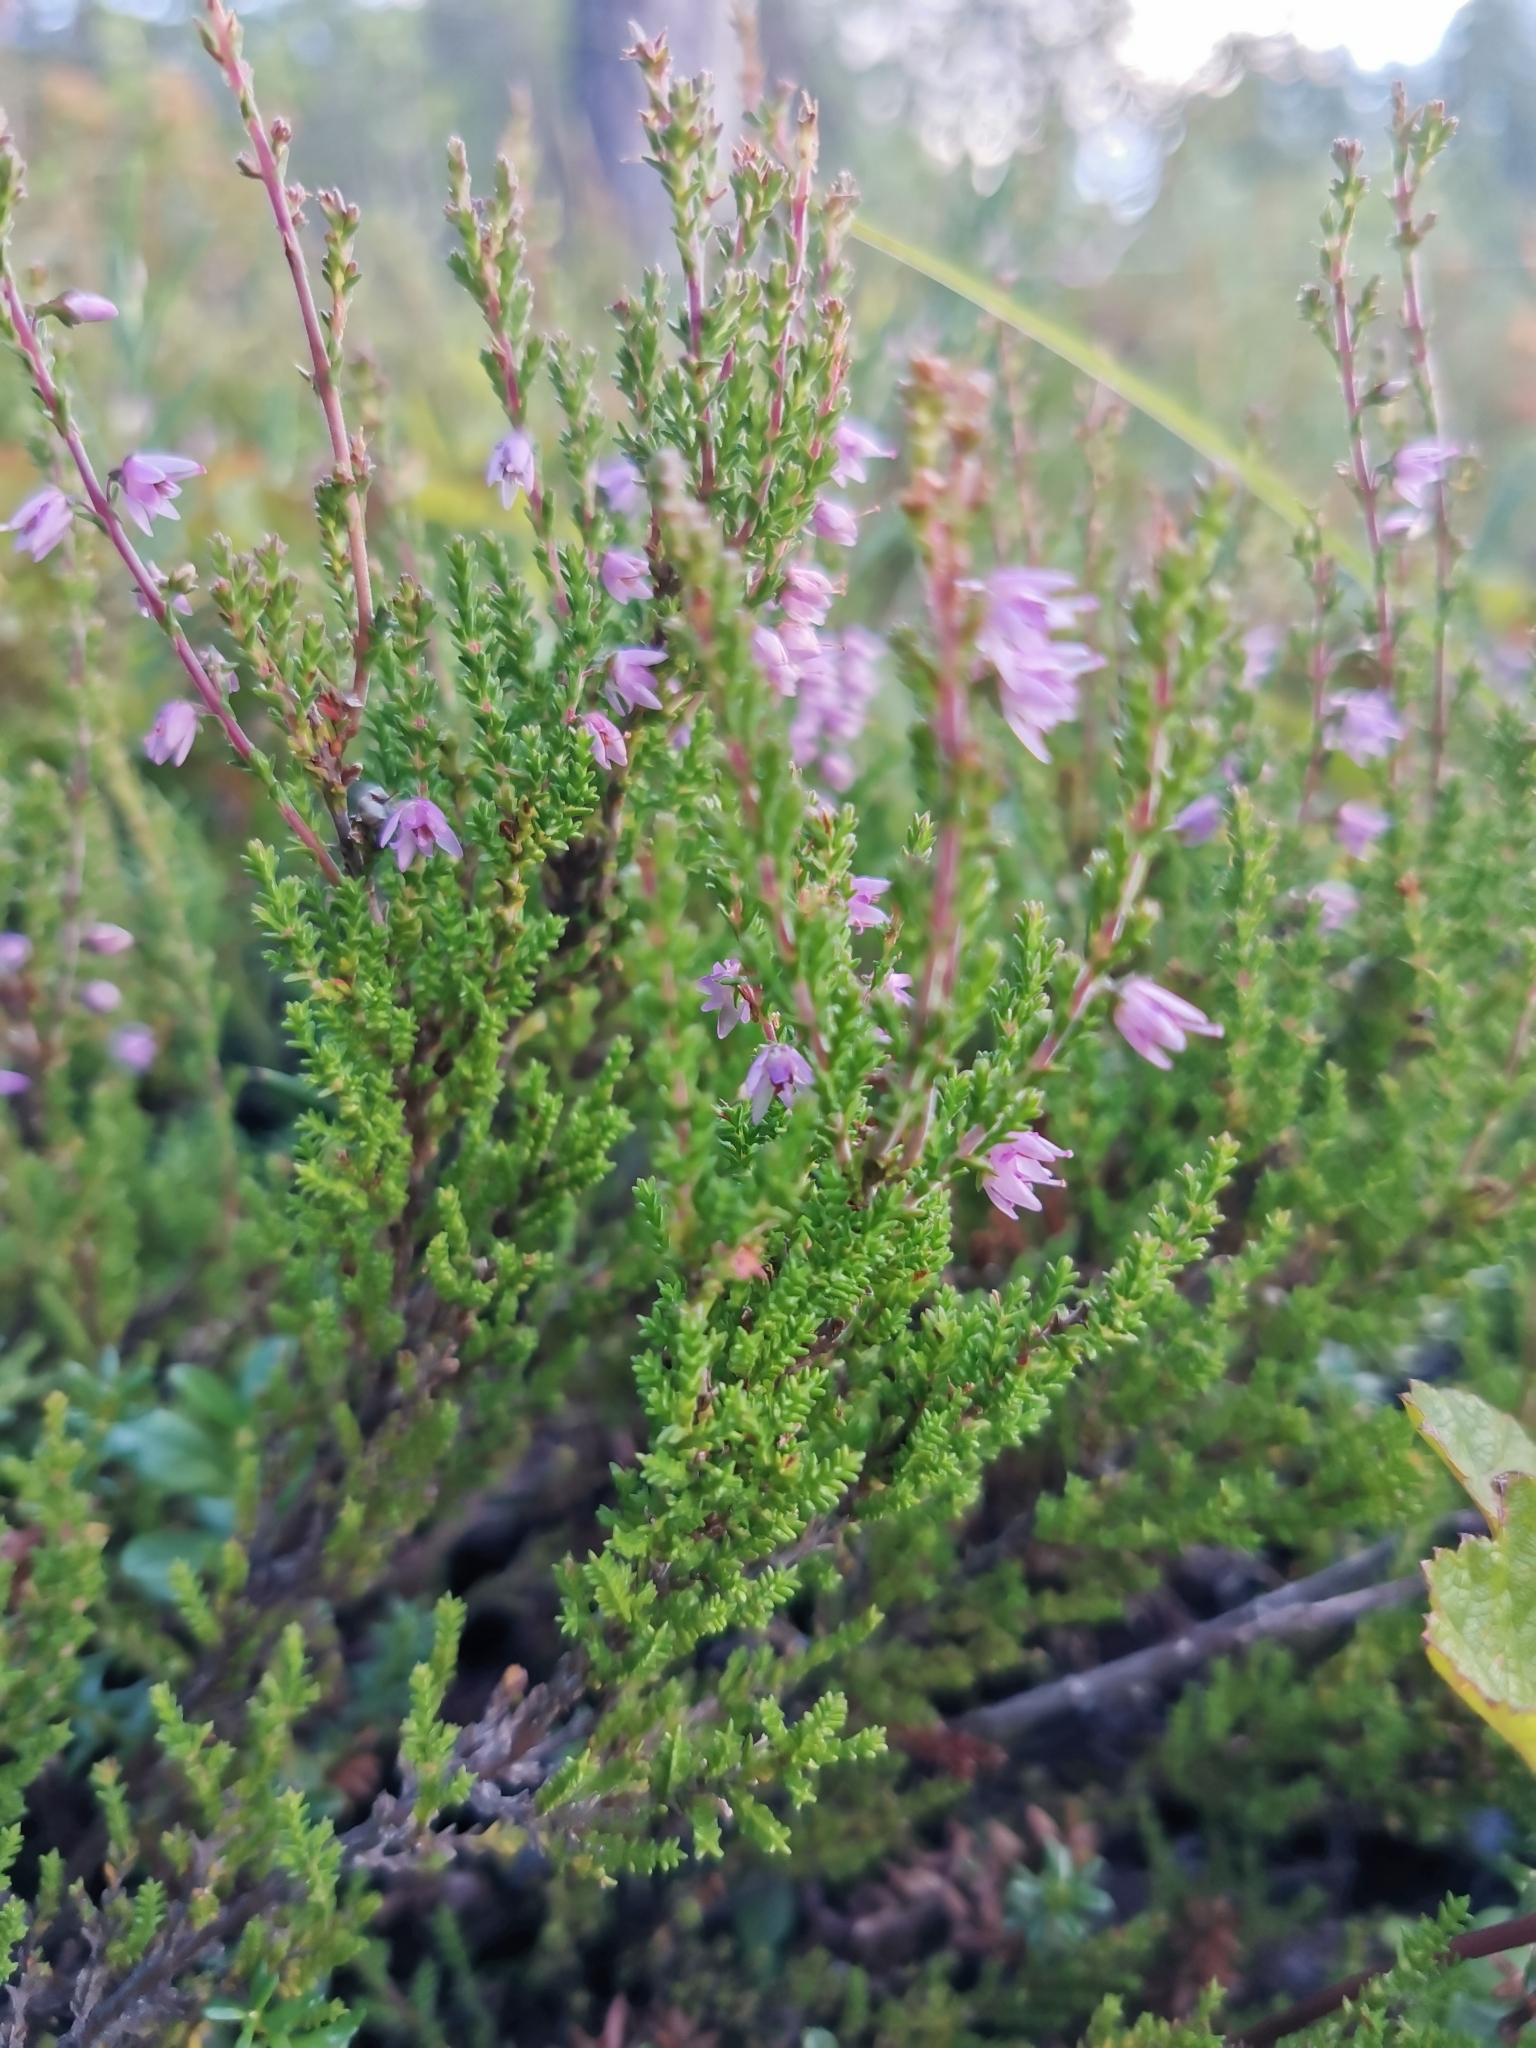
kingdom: Plantae
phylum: Tracheophyta
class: Magnoliopsida
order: Ericales
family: Ericaceae
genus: Calluna
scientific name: Calluna vulgaris
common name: Heather
